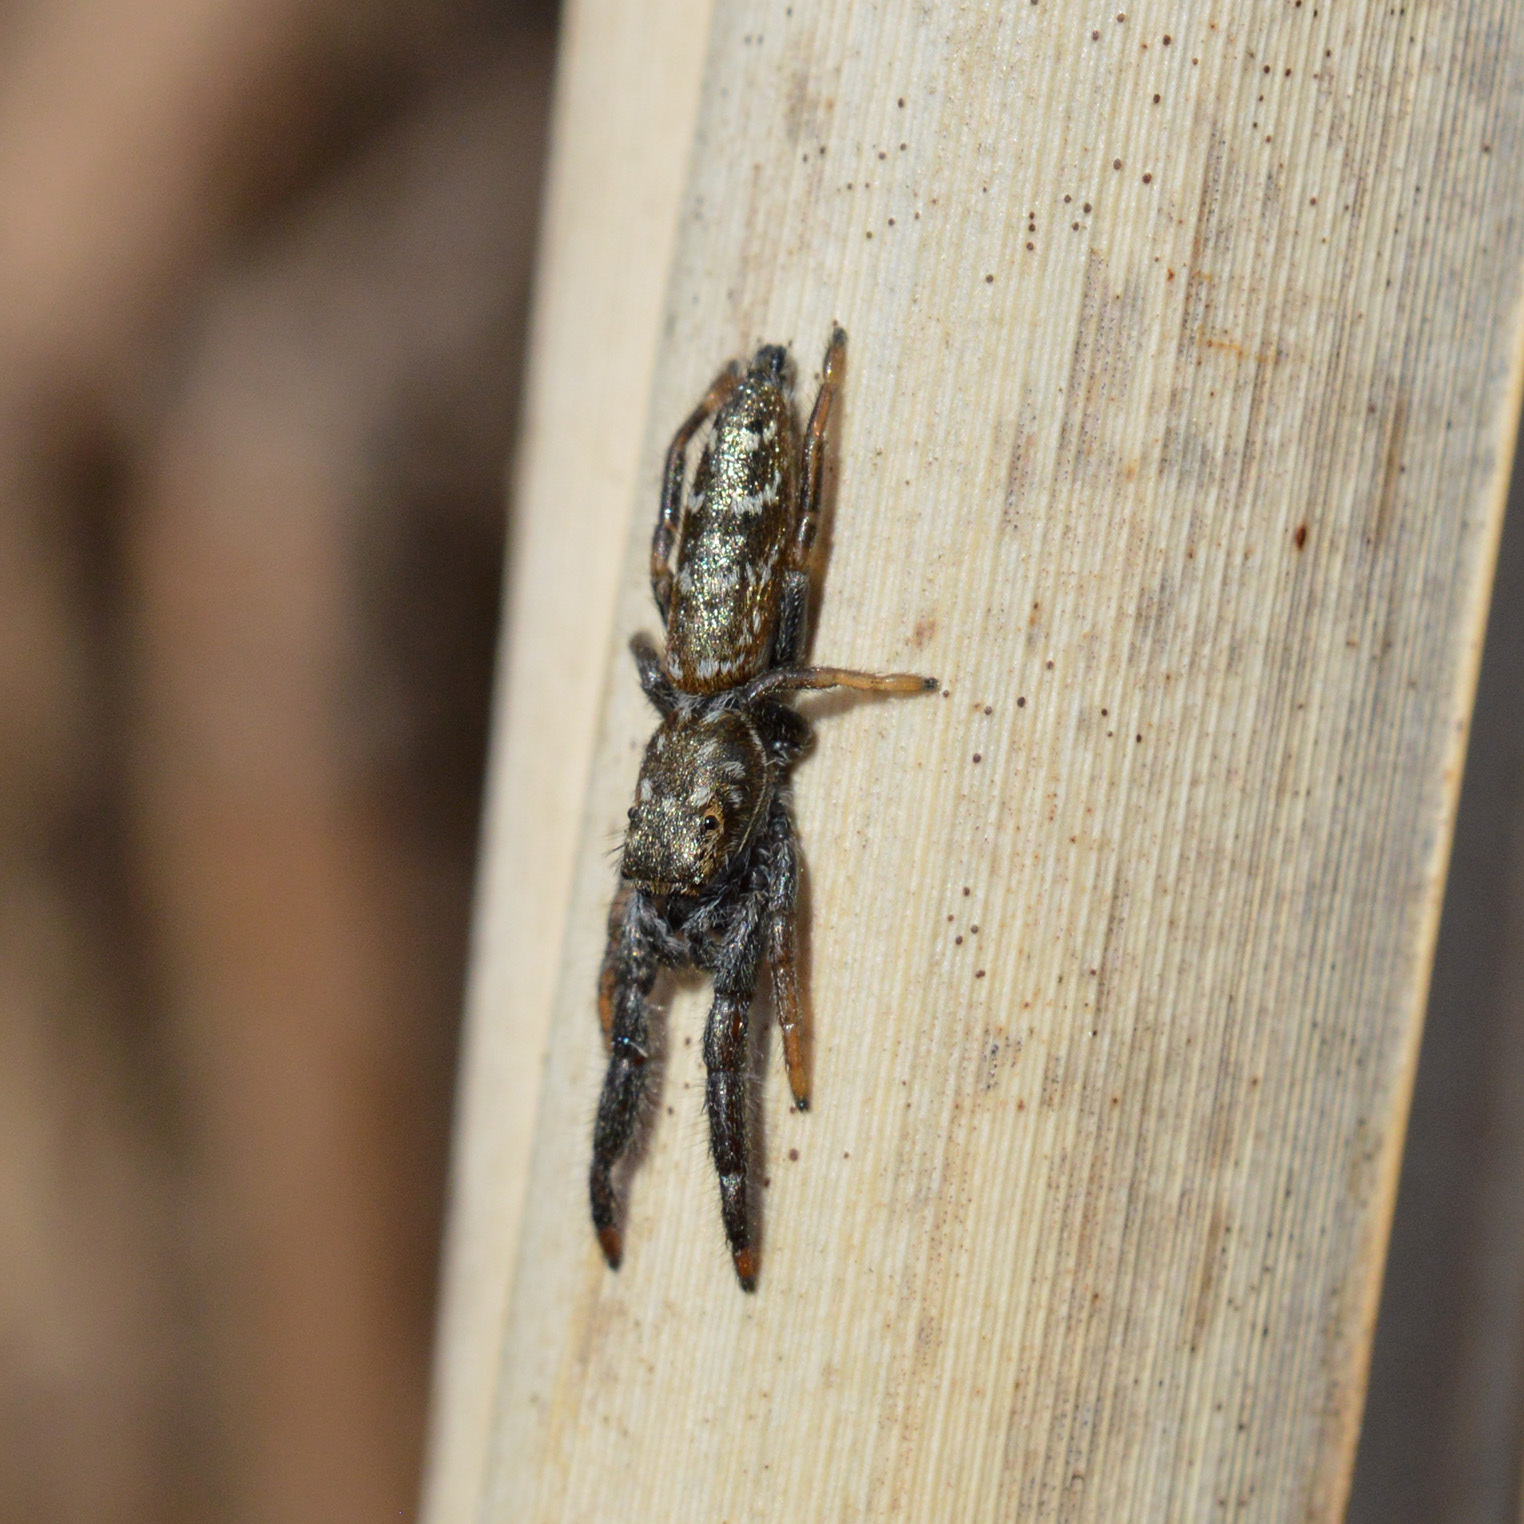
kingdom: Animalia
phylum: Arthropoda
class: Arachnida
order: Araneae
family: Salticidae
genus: Mendoza
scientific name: Mendoza canestrinii
